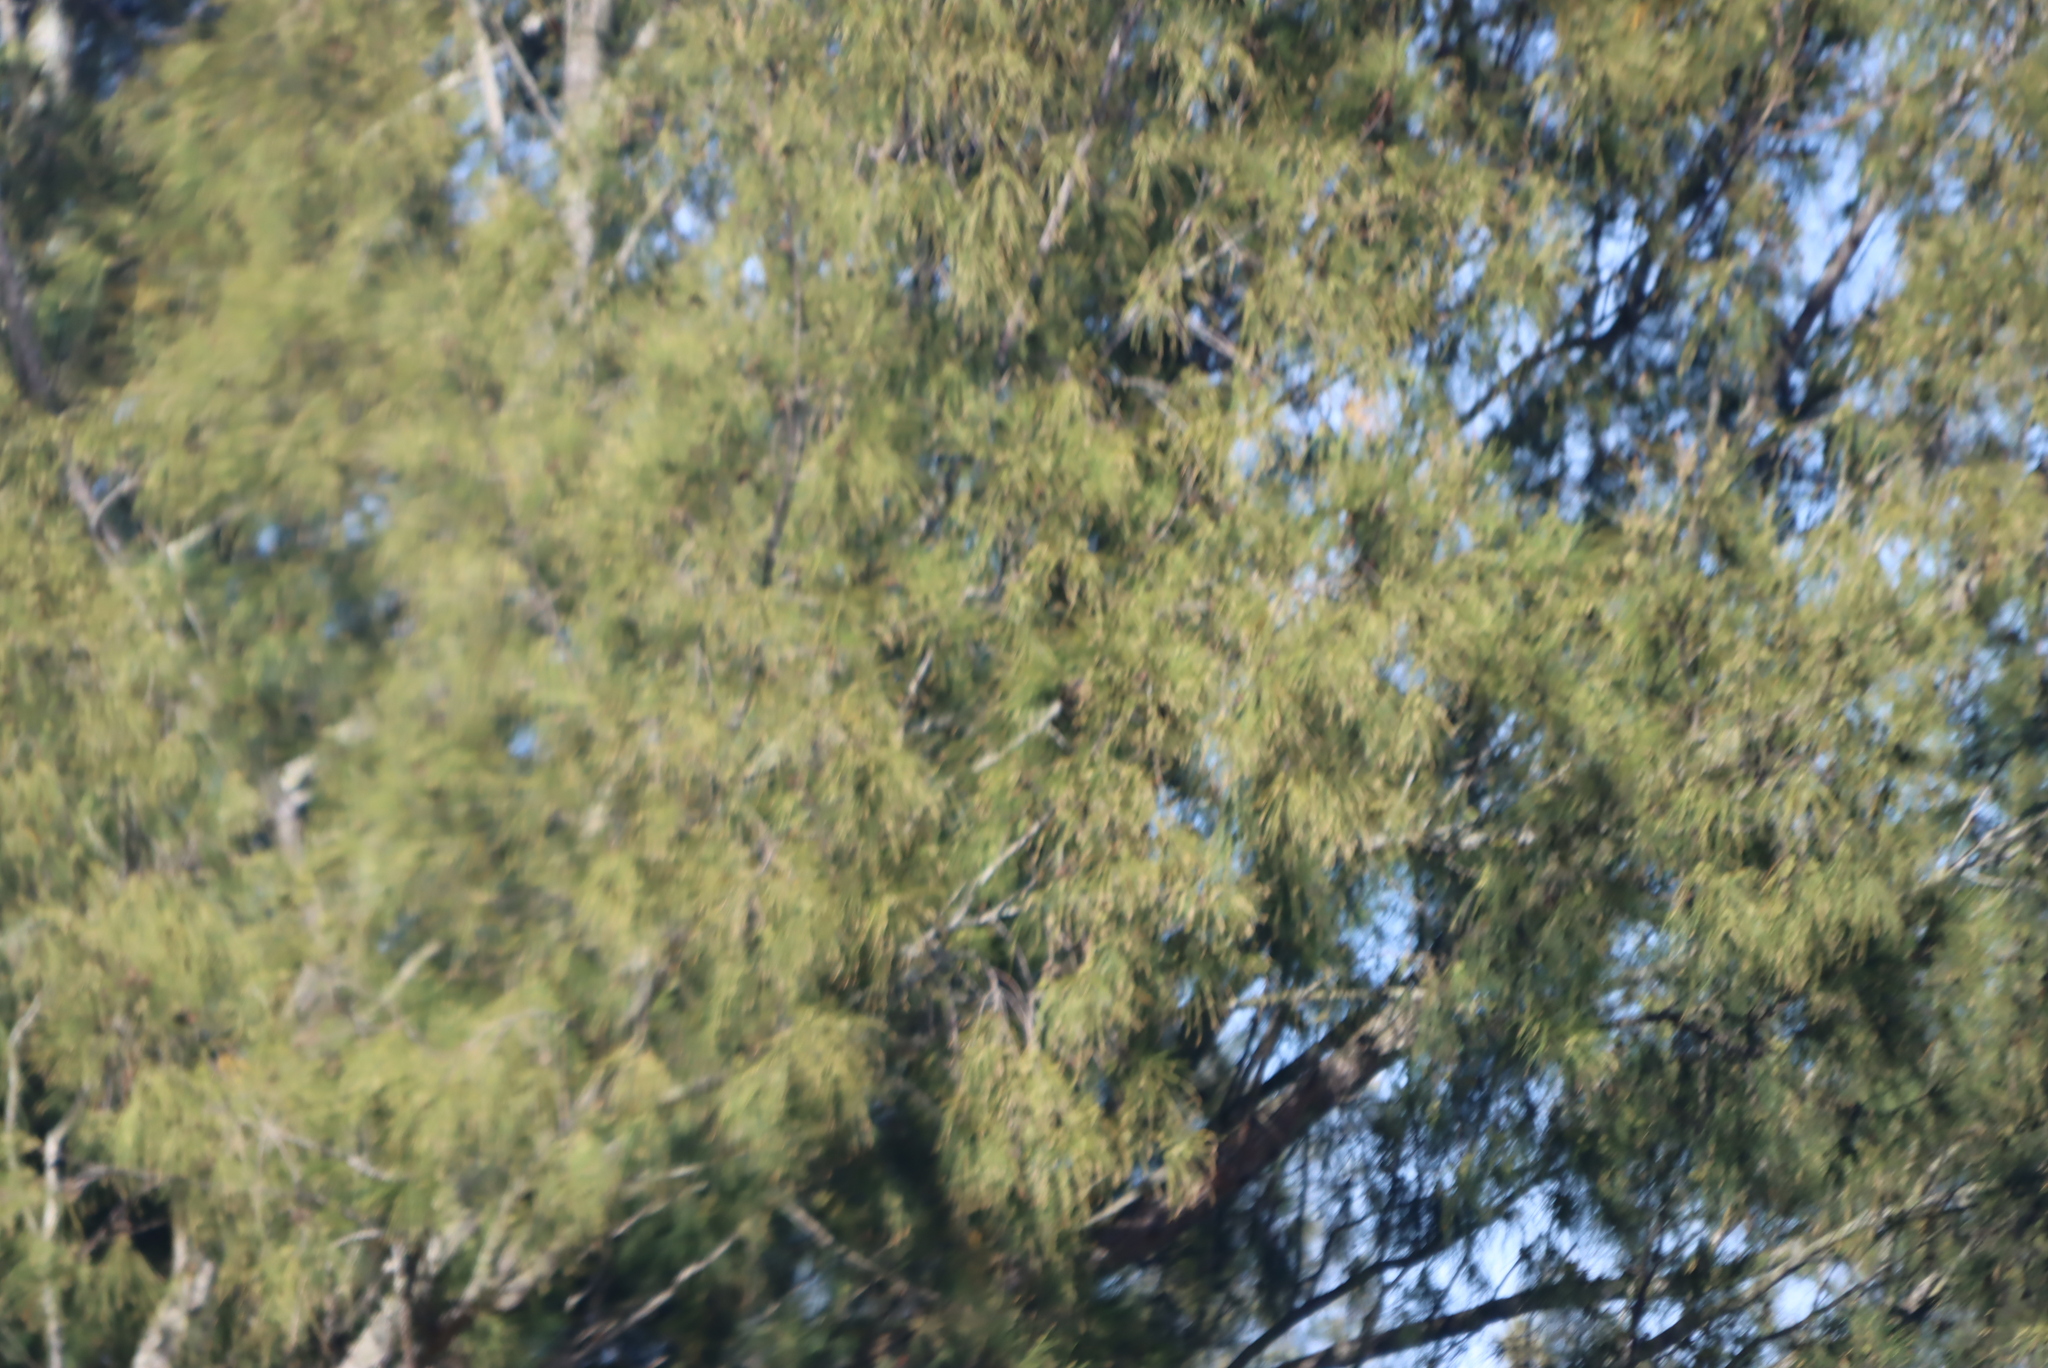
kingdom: Plantae
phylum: Tracheophyta
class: Magnoliopsida
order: Fagales
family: Casuarinaceae
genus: Casuarina
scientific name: Casuarina cunninghamiana
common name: River sheoak
